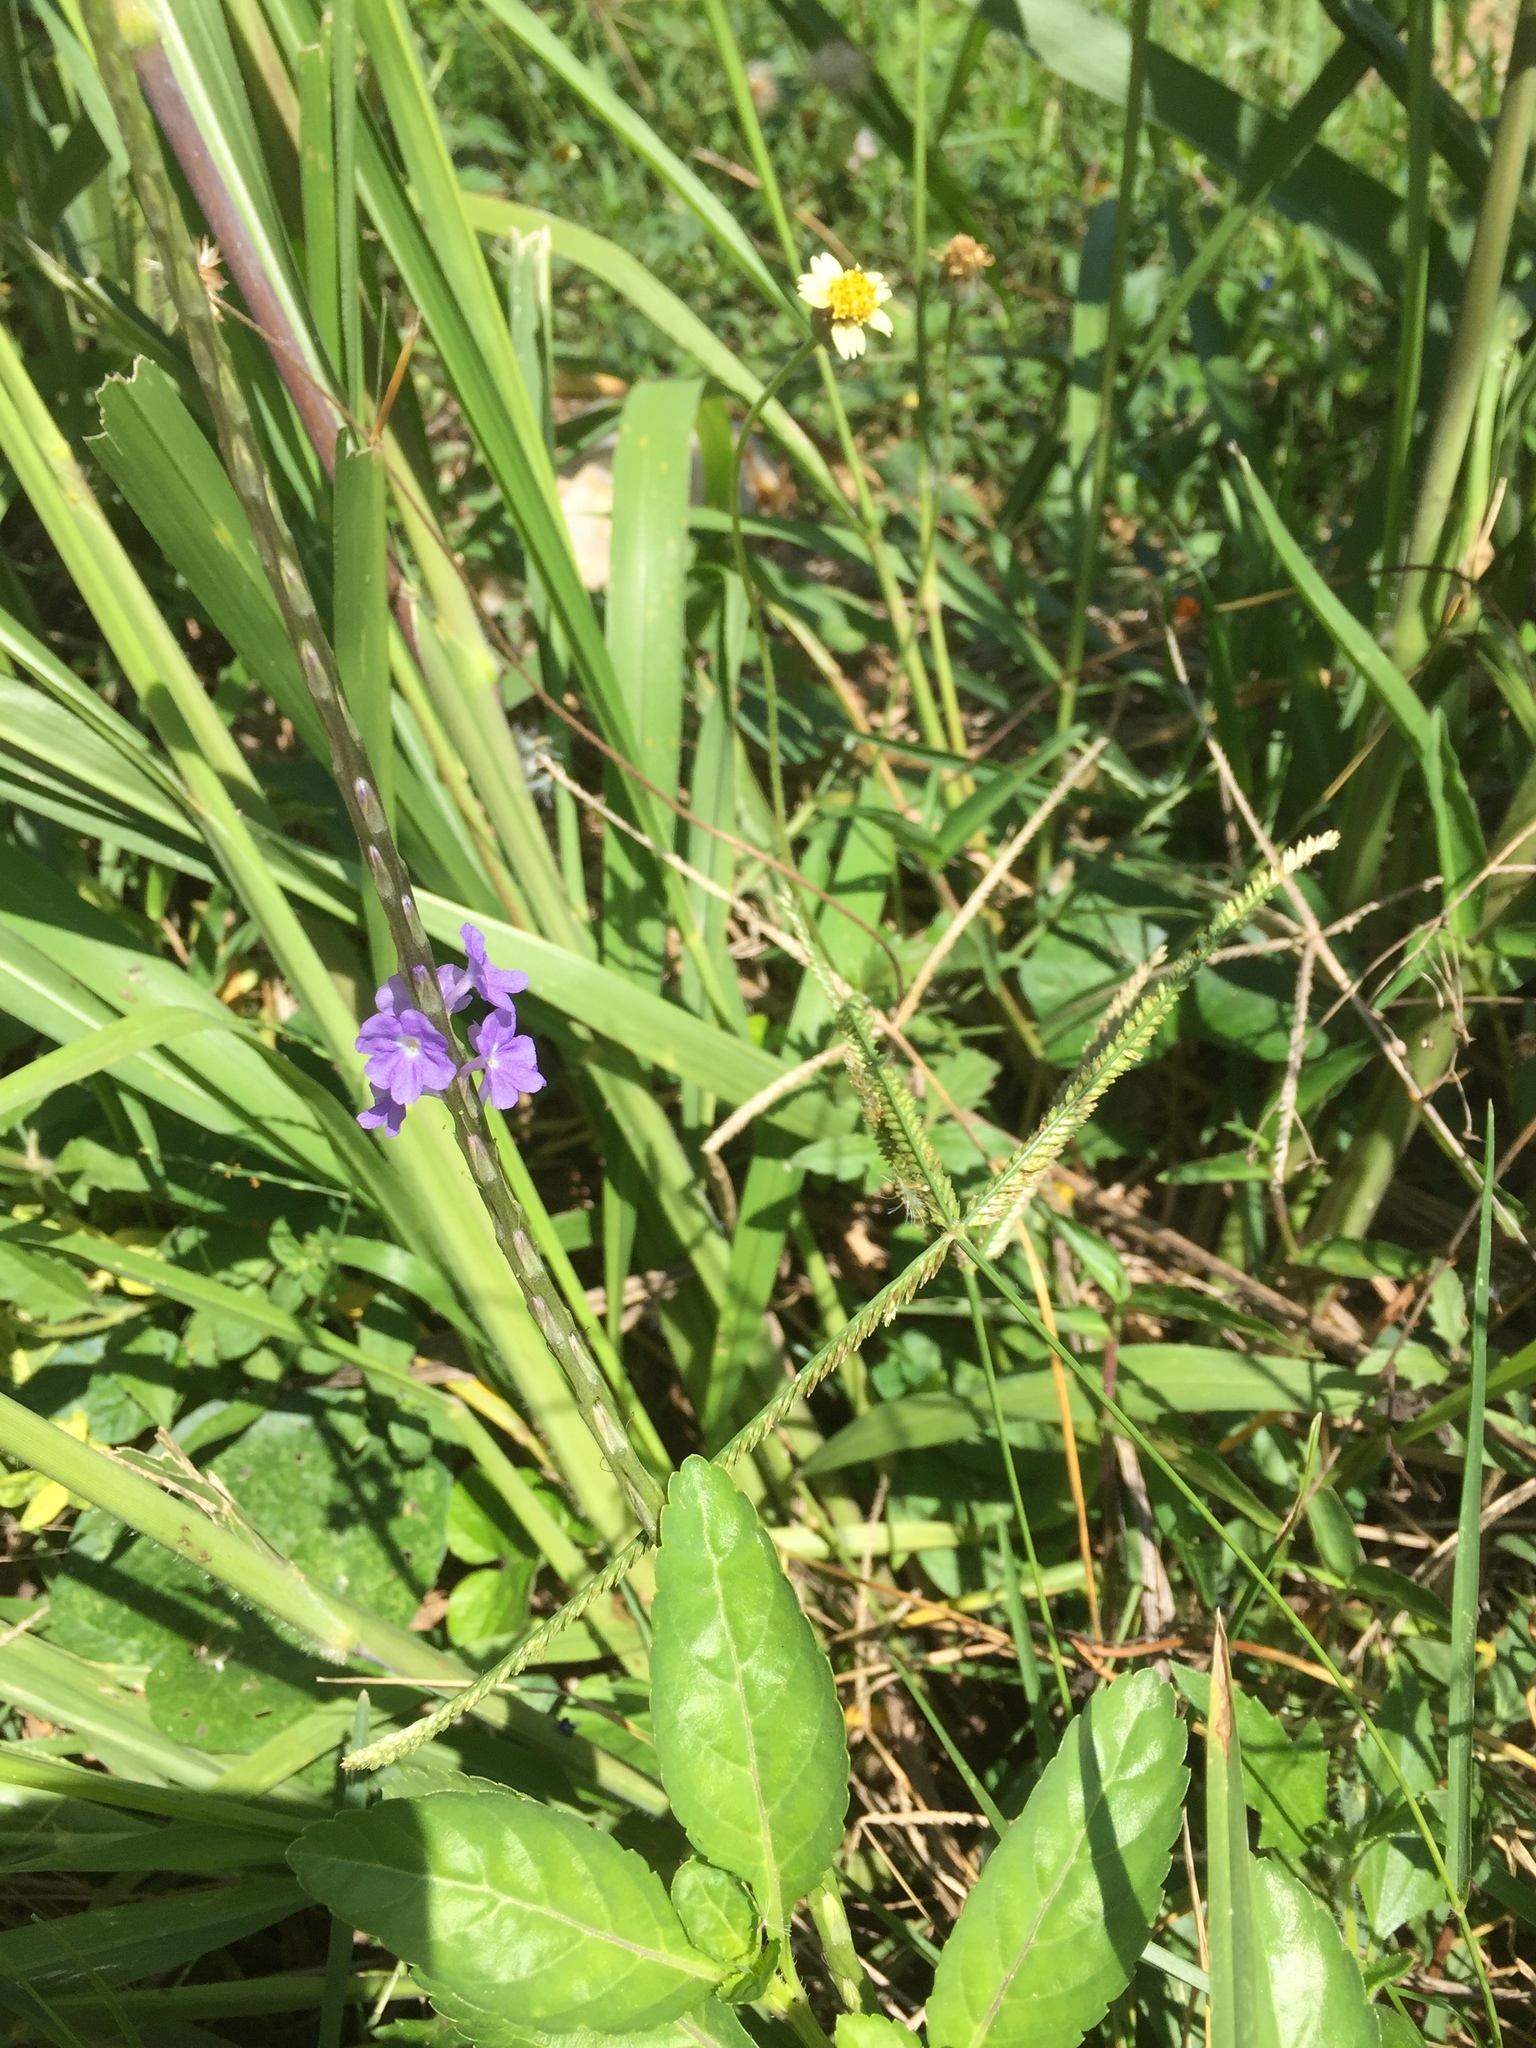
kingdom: Plantae
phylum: Tracheophyta
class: Magnoliopsida
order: Lamiales
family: Verbenaceae
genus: Stachytarpheta
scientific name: Stachytarpheta jamaicensis
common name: Light-blue snakeweed
